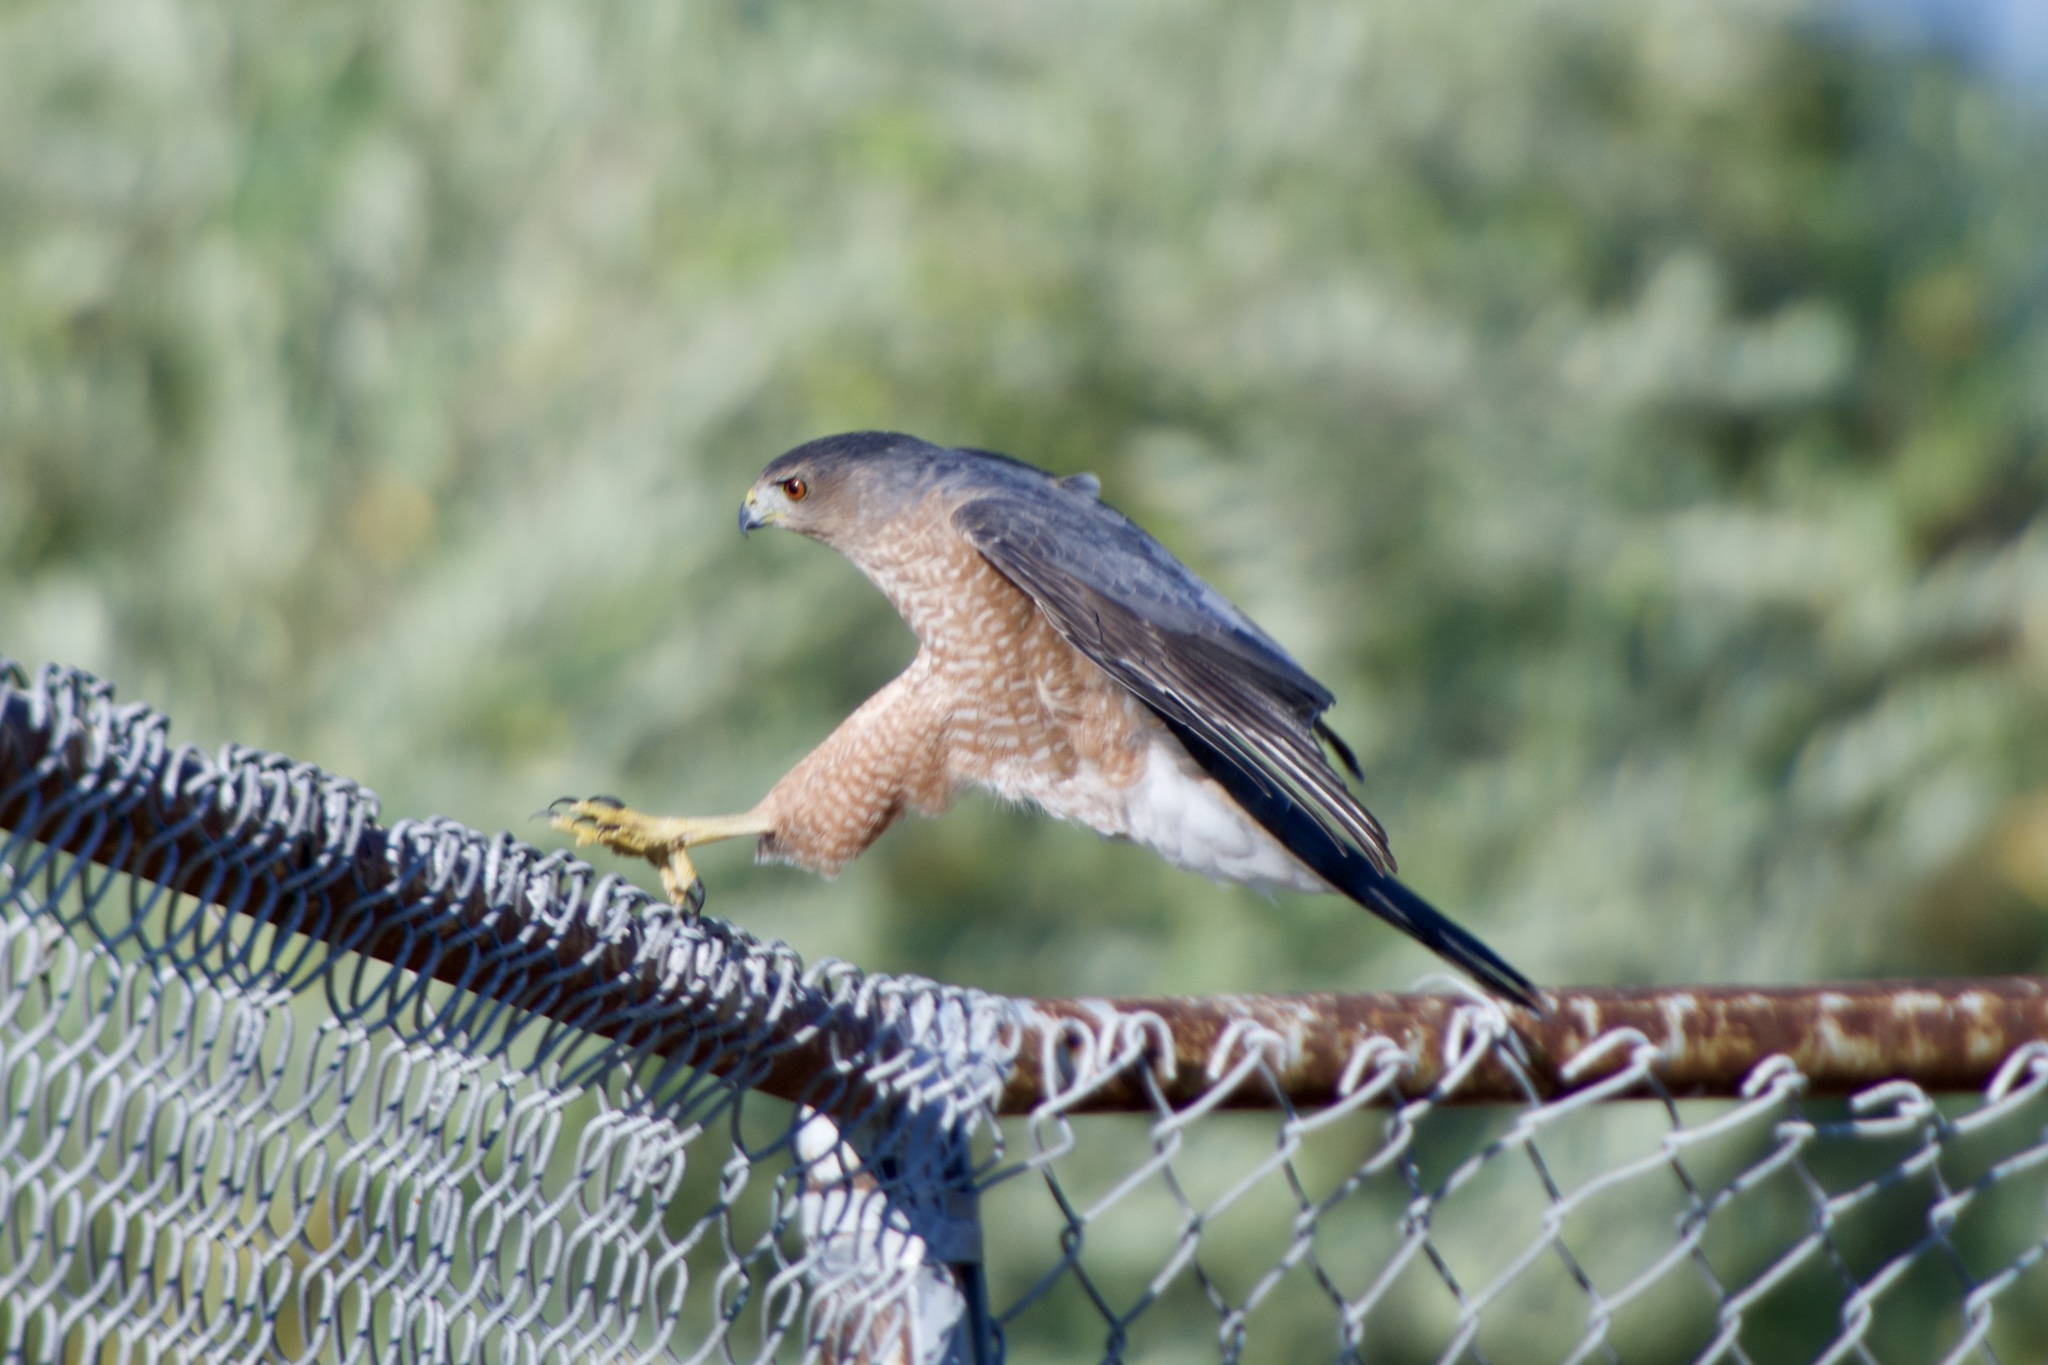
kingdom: Animalia
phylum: Chordata
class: Aves
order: Accipitriformes
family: Accipitridae
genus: Accipiter
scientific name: Accipiter cooperii
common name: Cooper's hawk
